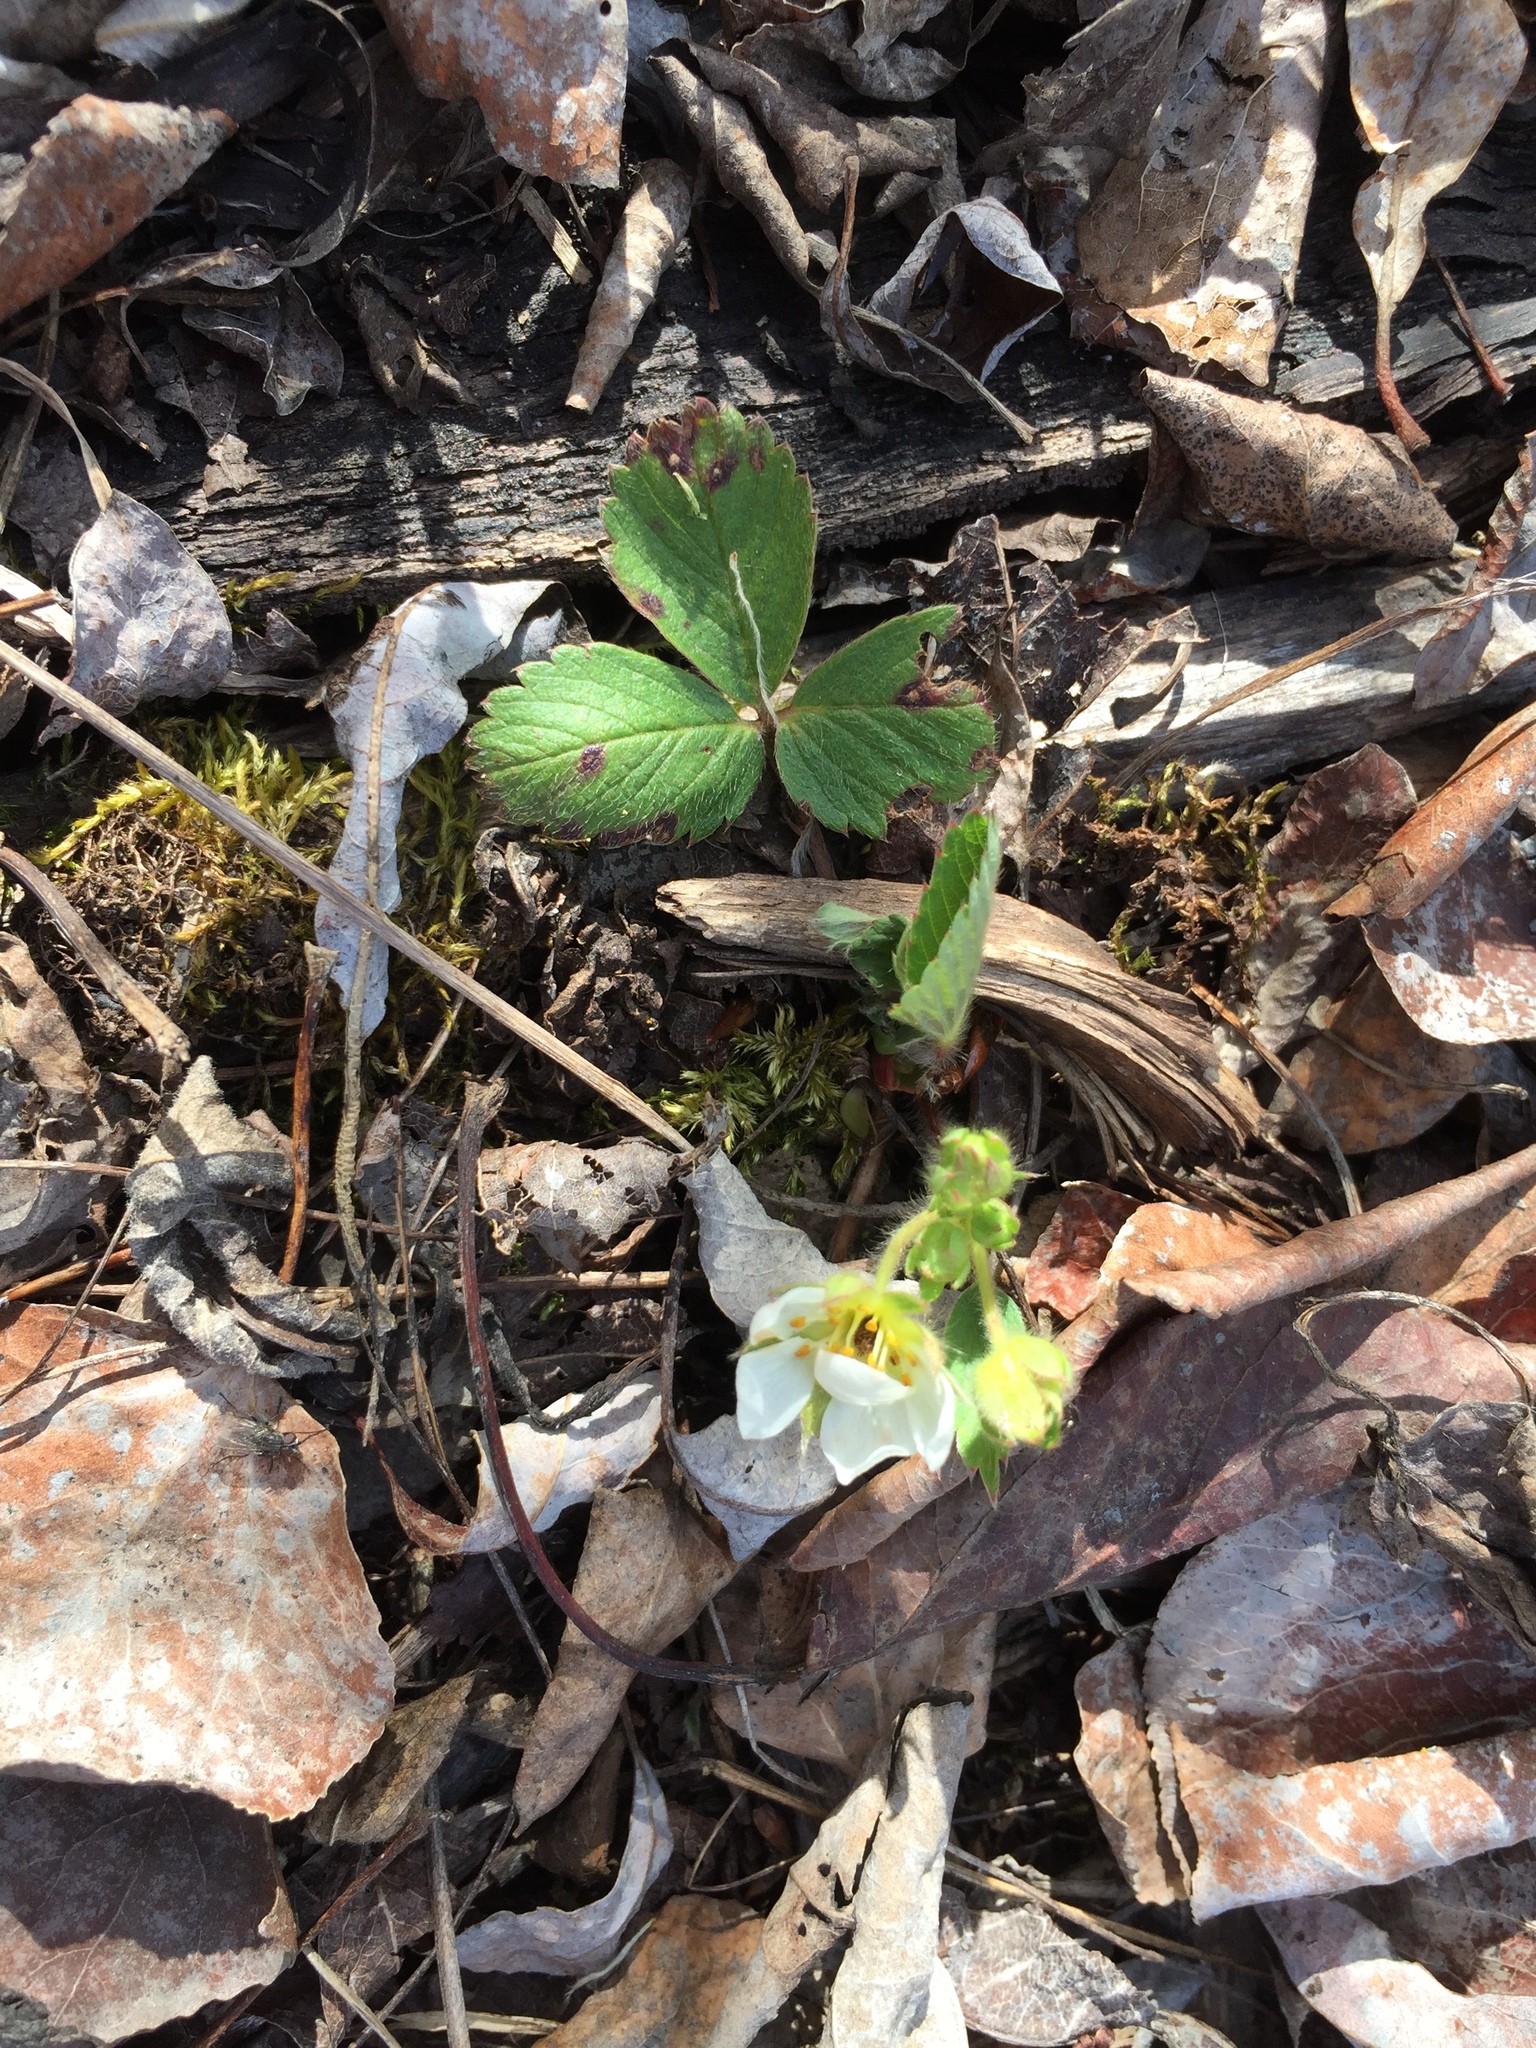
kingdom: Plantae
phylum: Tracheophyta
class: Magnoliopsida
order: Rosales
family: Rosaceae
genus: Fragaria
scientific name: Fragaria virginiana
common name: Thickleaved wild strawberry
